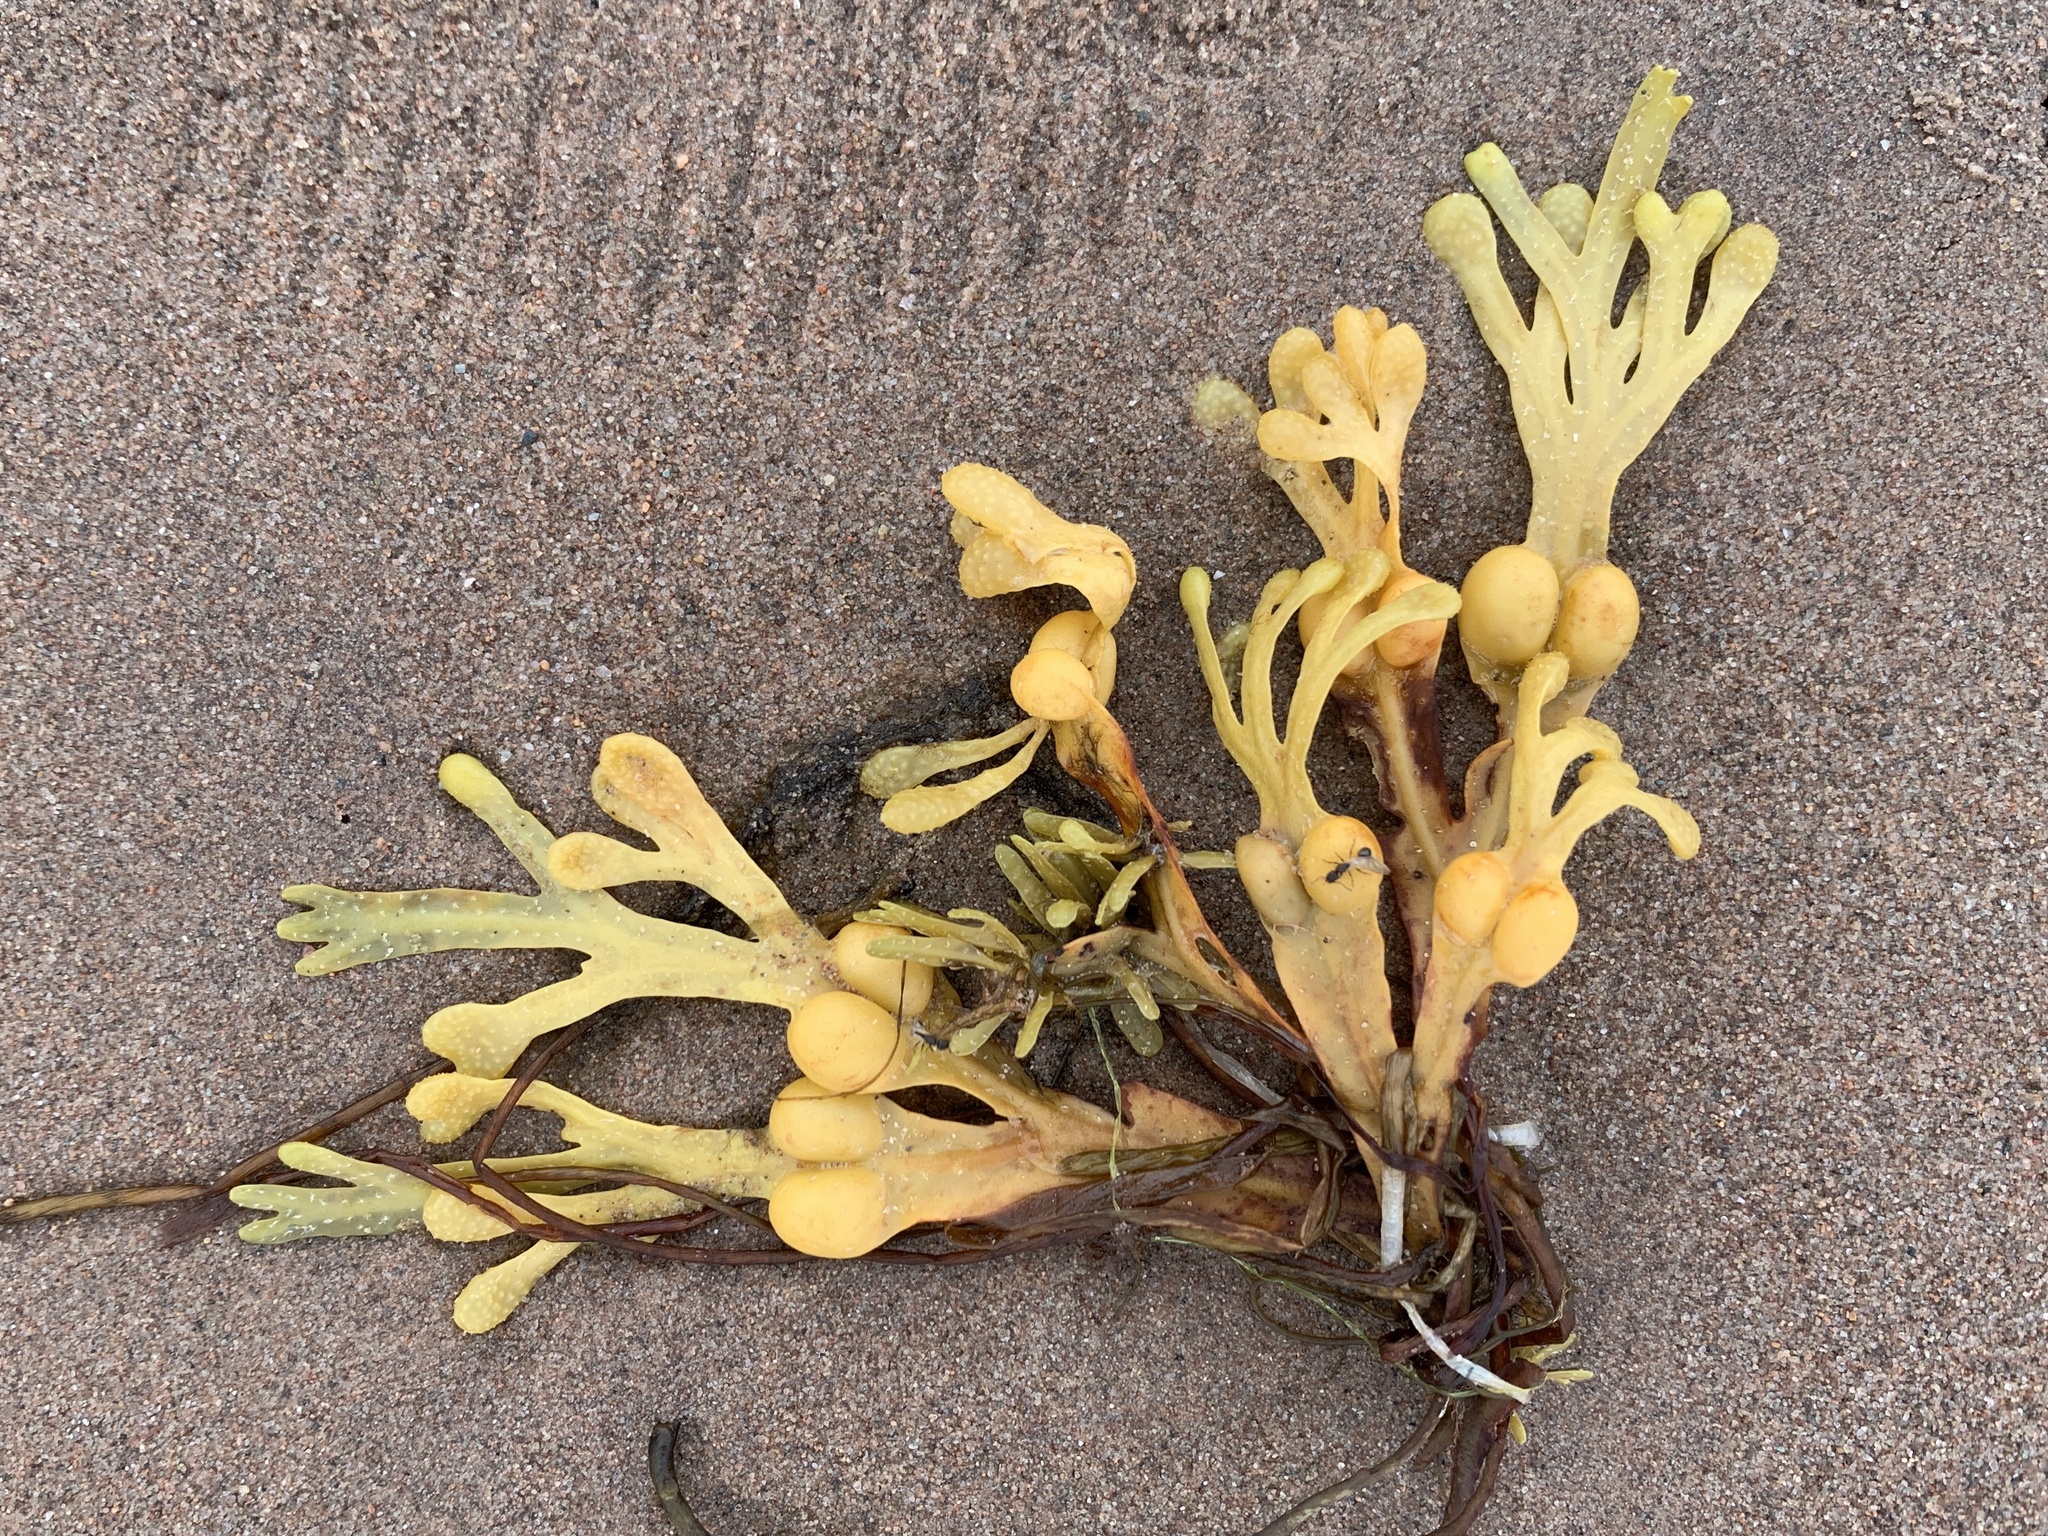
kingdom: Chromista
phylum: Ochrophyta
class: Phaeophyceae
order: Fucales
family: Fucaceae
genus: Fucus
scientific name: Fucus vesiculosus
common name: Bladder wrack
